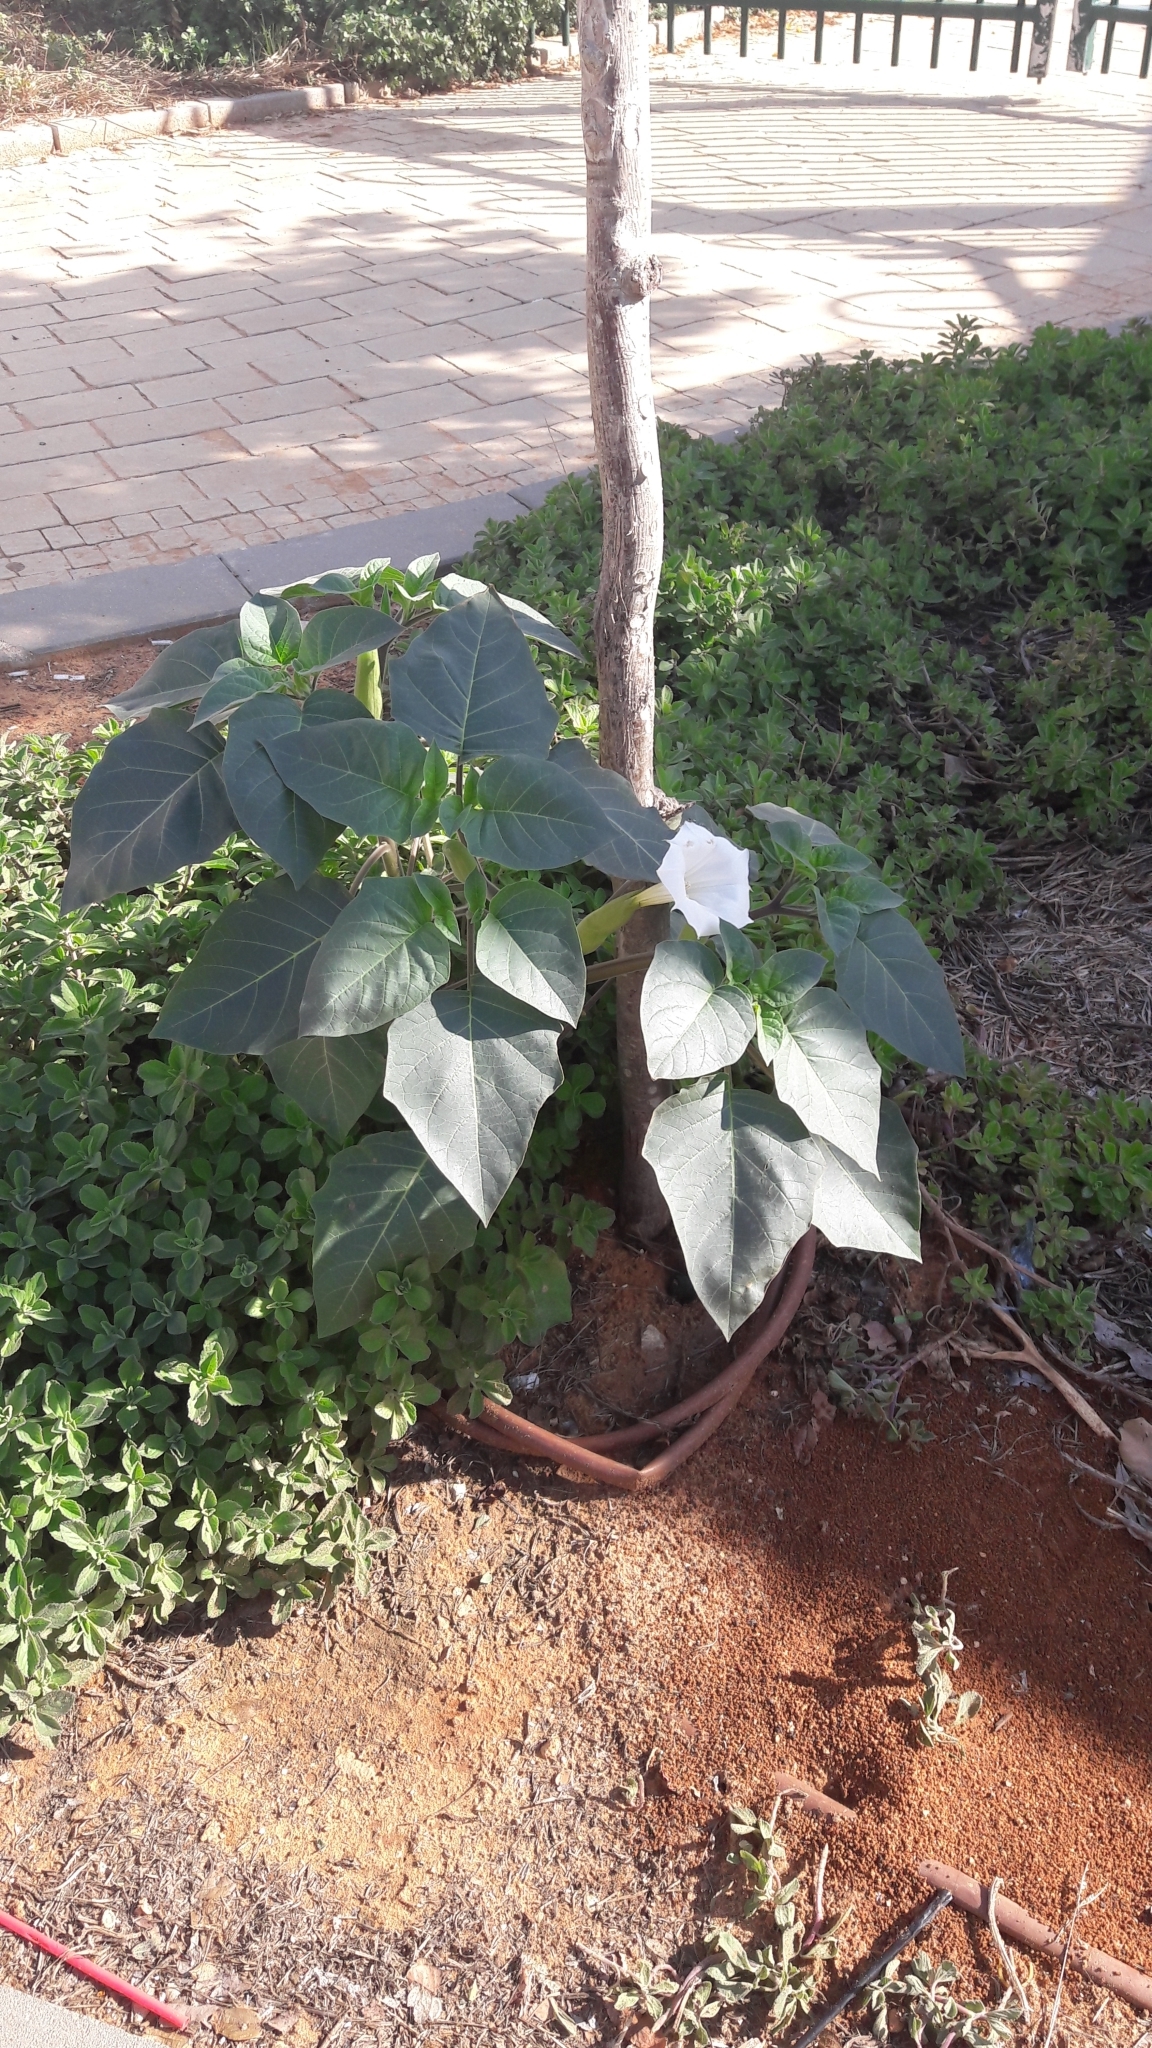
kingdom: Plantae
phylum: Tracheophyta
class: Magnoliopsida
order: Solanales
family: Solanaceae
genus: Datura
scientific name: Datura innoxia
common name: Downy thorn-apple
